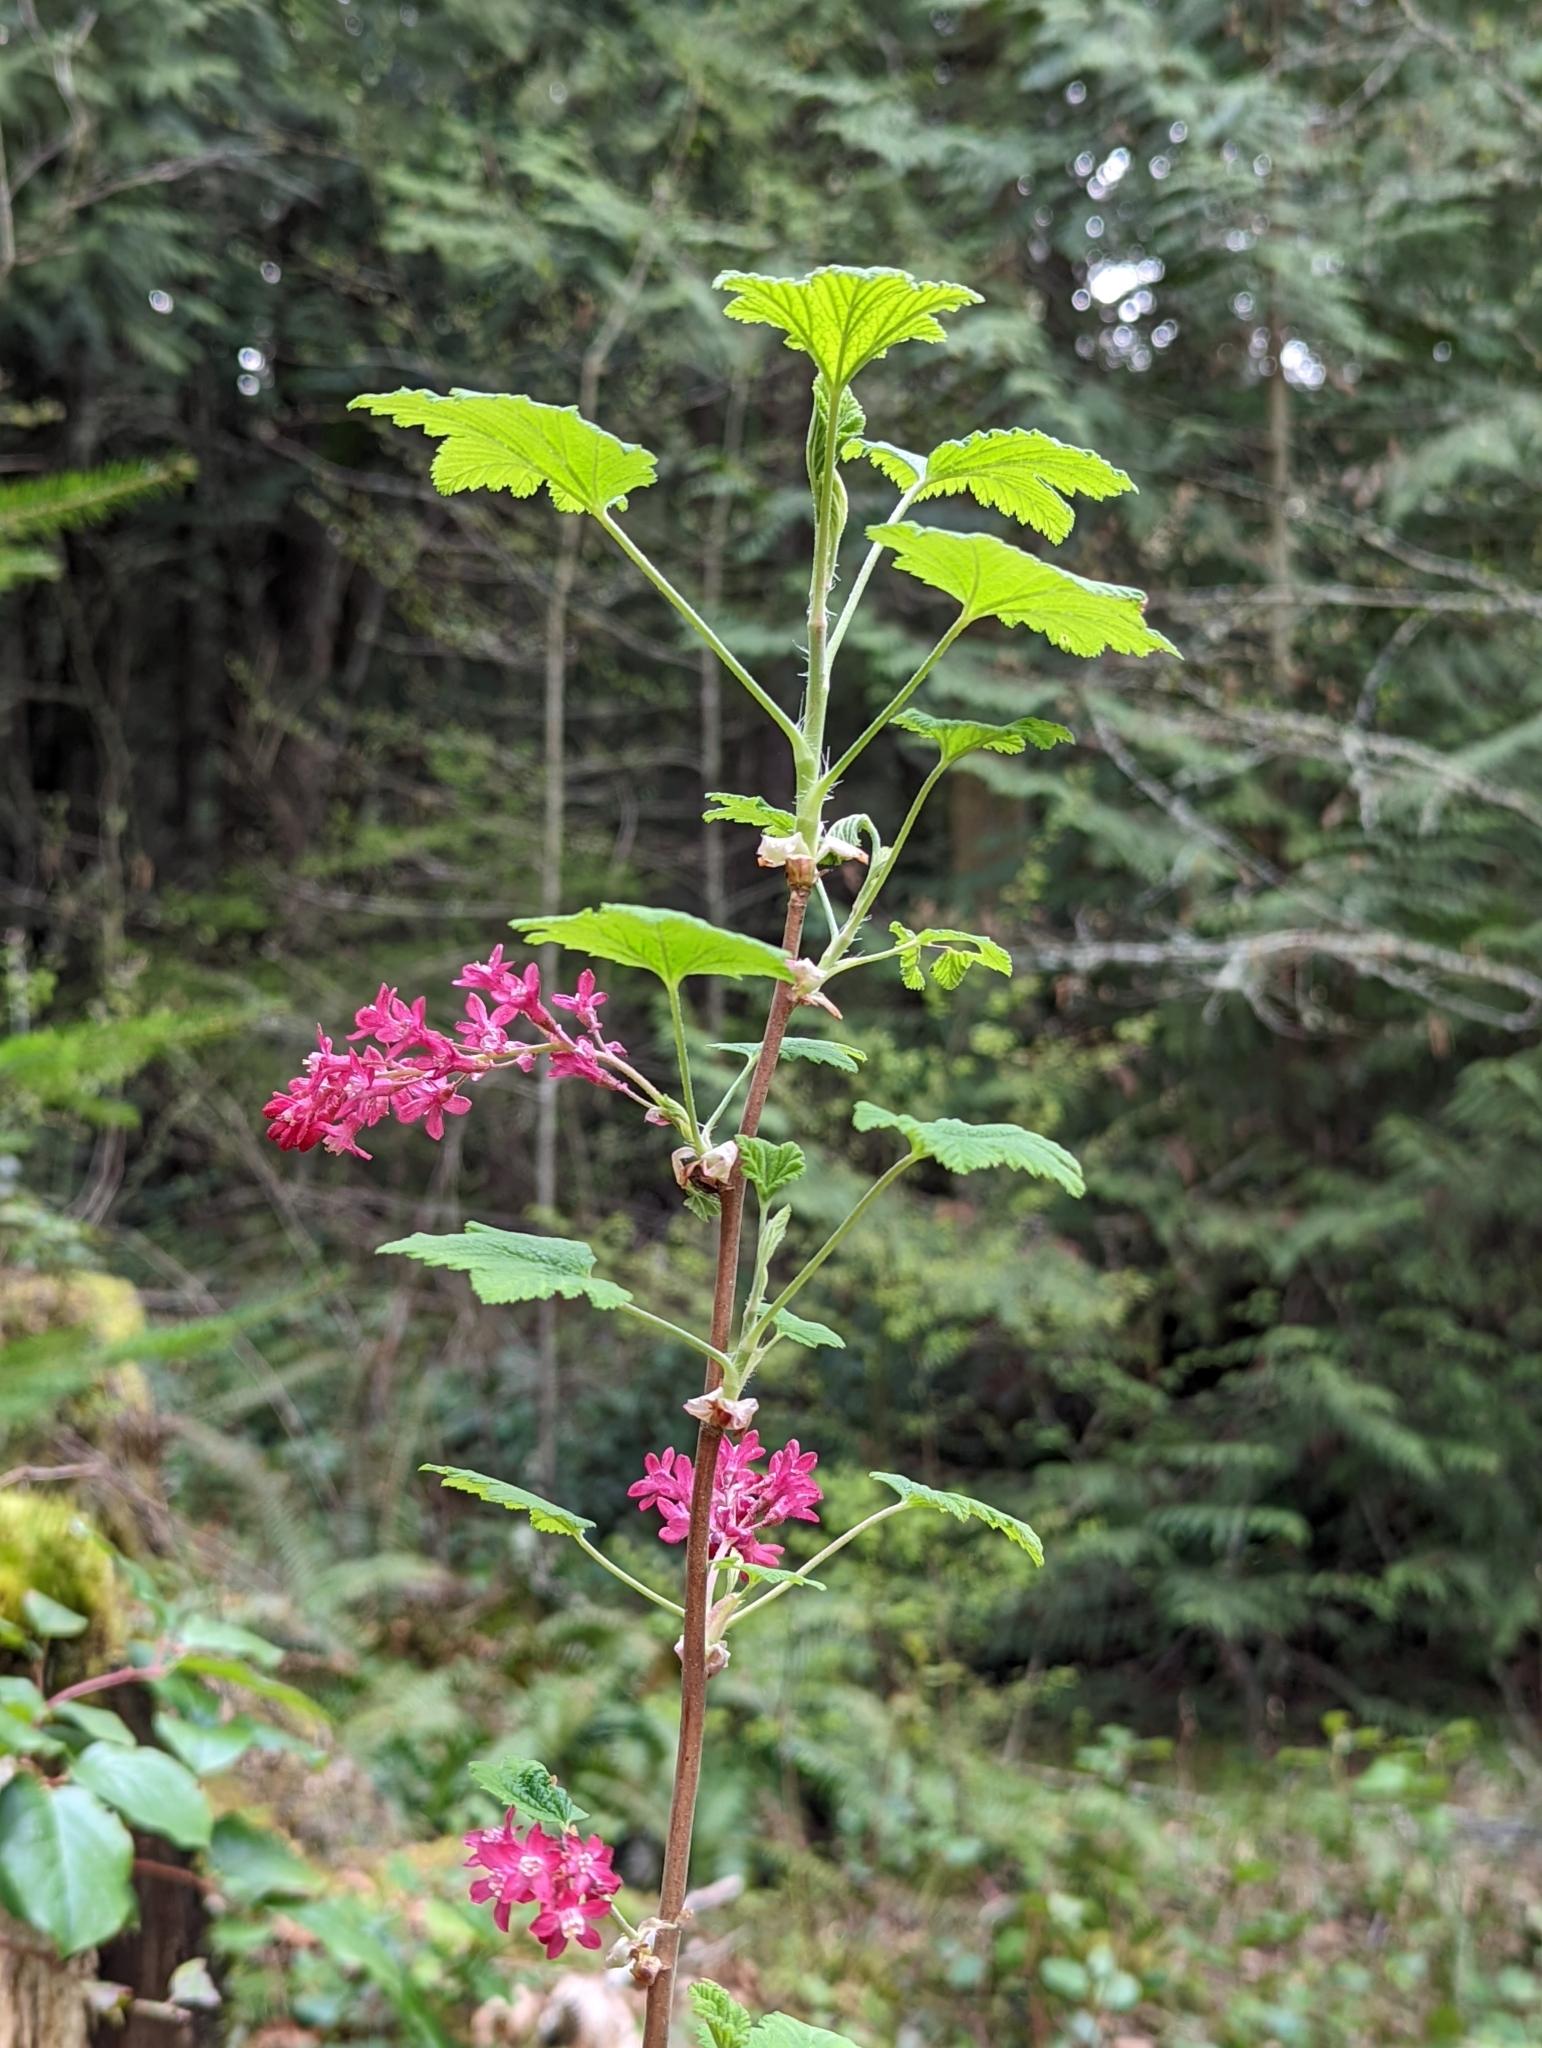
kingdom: Plantae
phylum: Tracheophyta
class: Magnoliopsida
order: Saxifragales
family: Grossulariaceae
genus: Ribes
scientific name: Ribes sanguineum
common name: Flowering currant
